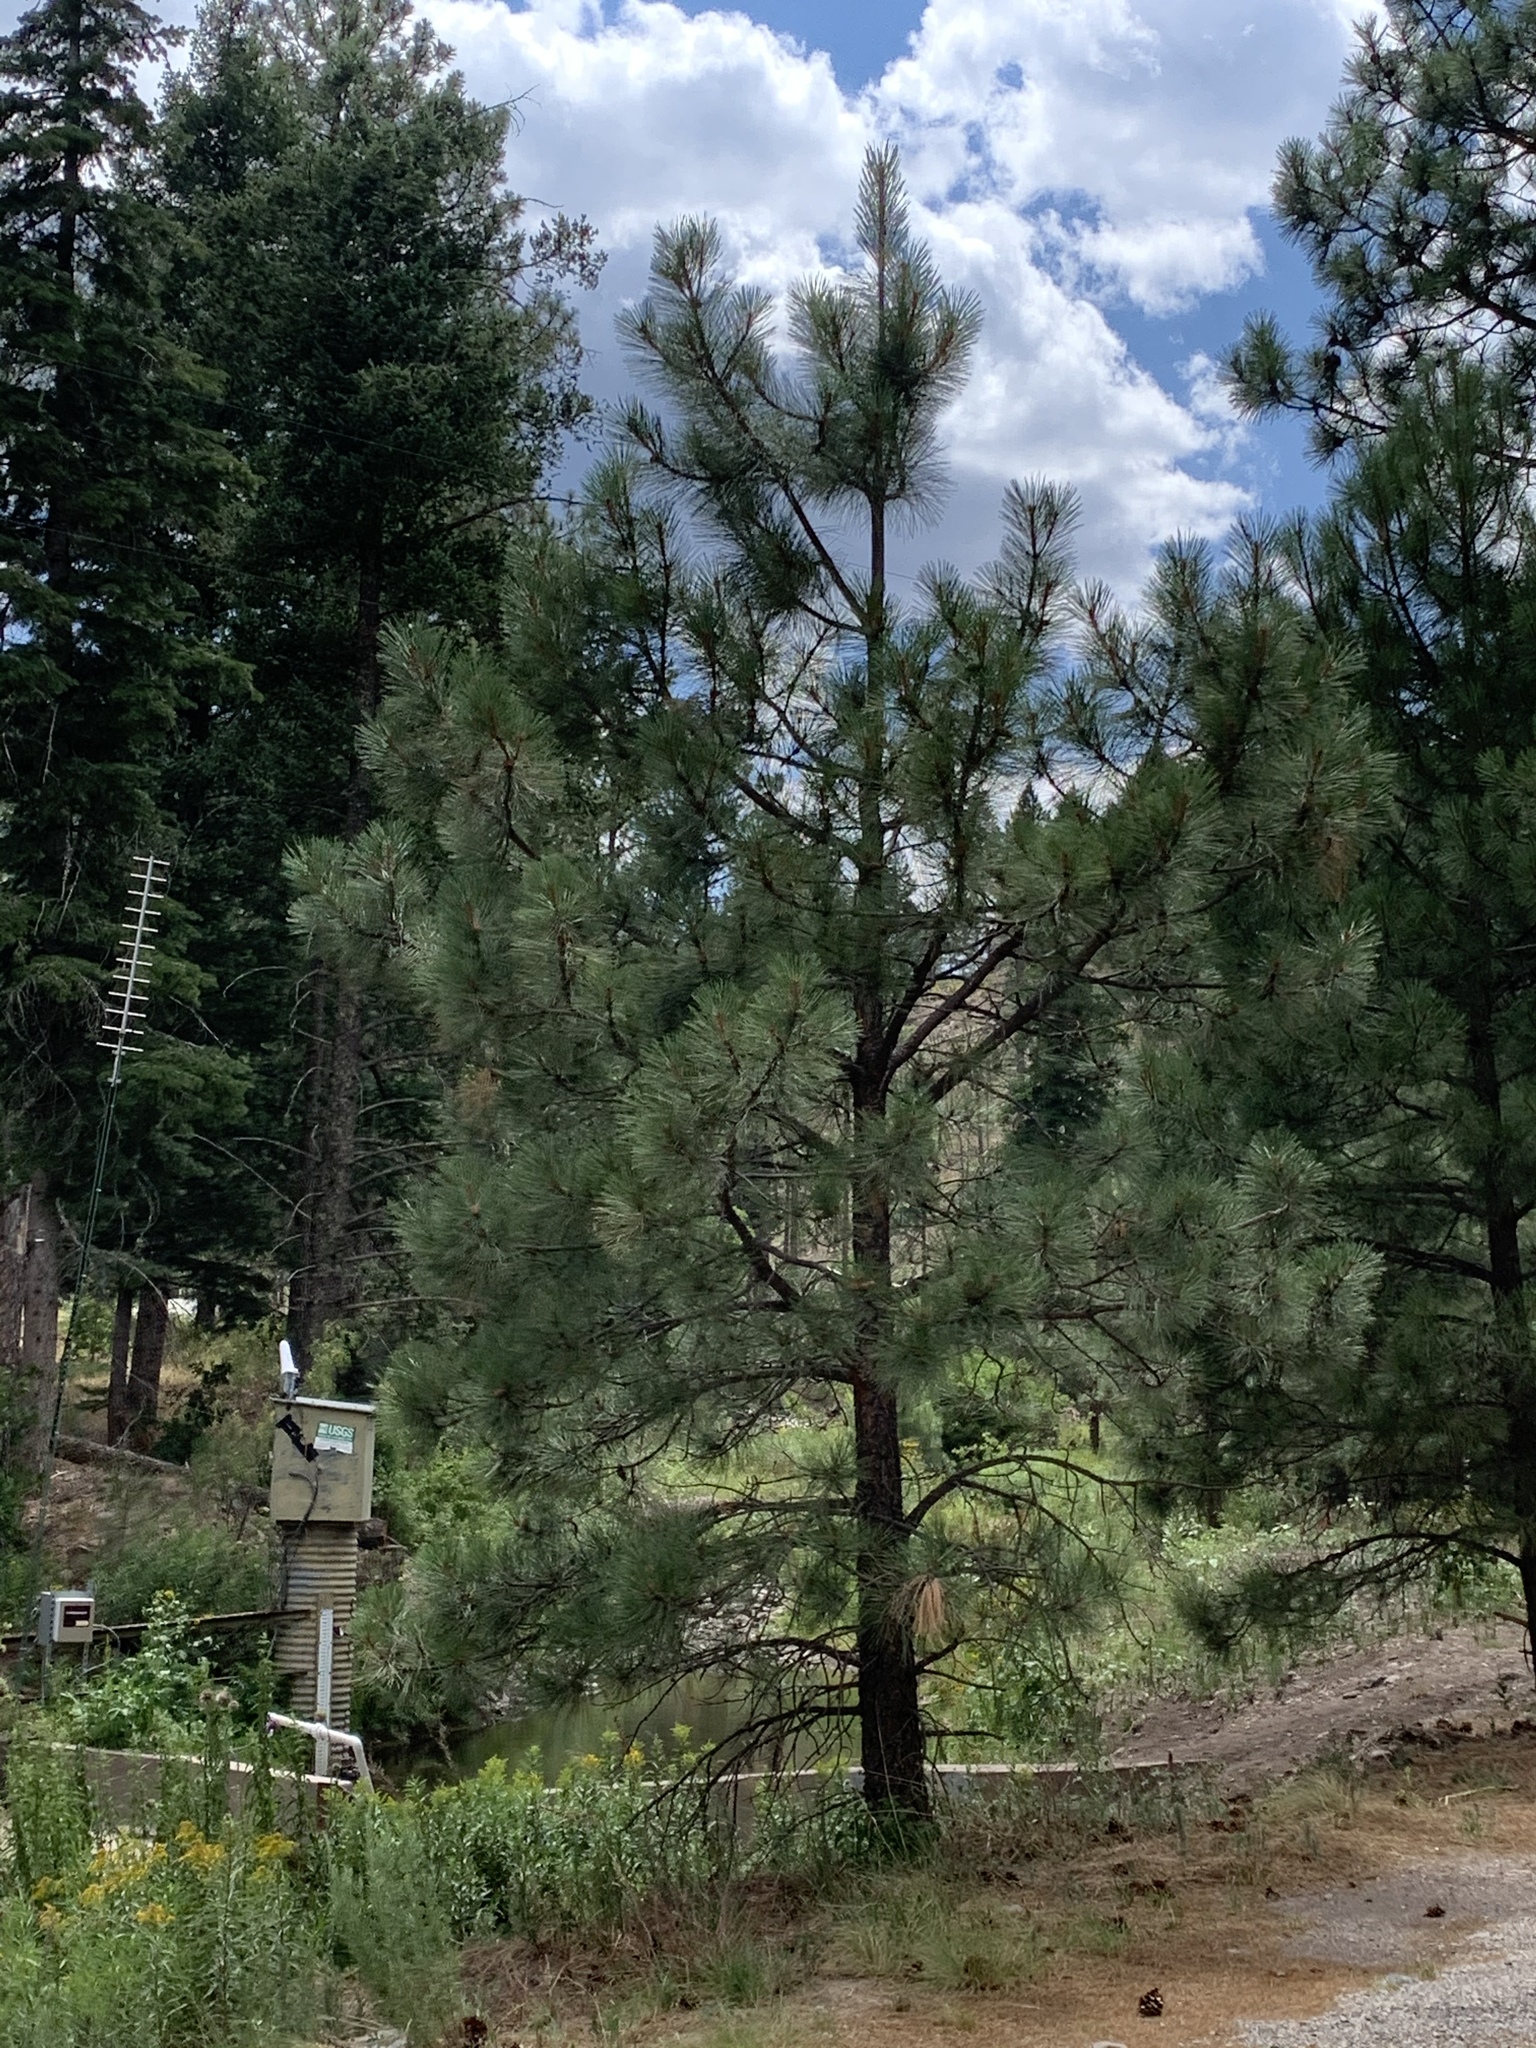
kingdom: Plantae
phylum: Tracheophyta
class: Pinopsida
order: Pinales
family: Pinaceae
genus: Pinus
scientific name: Pinus ponderosa
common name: Western yellow-pine
